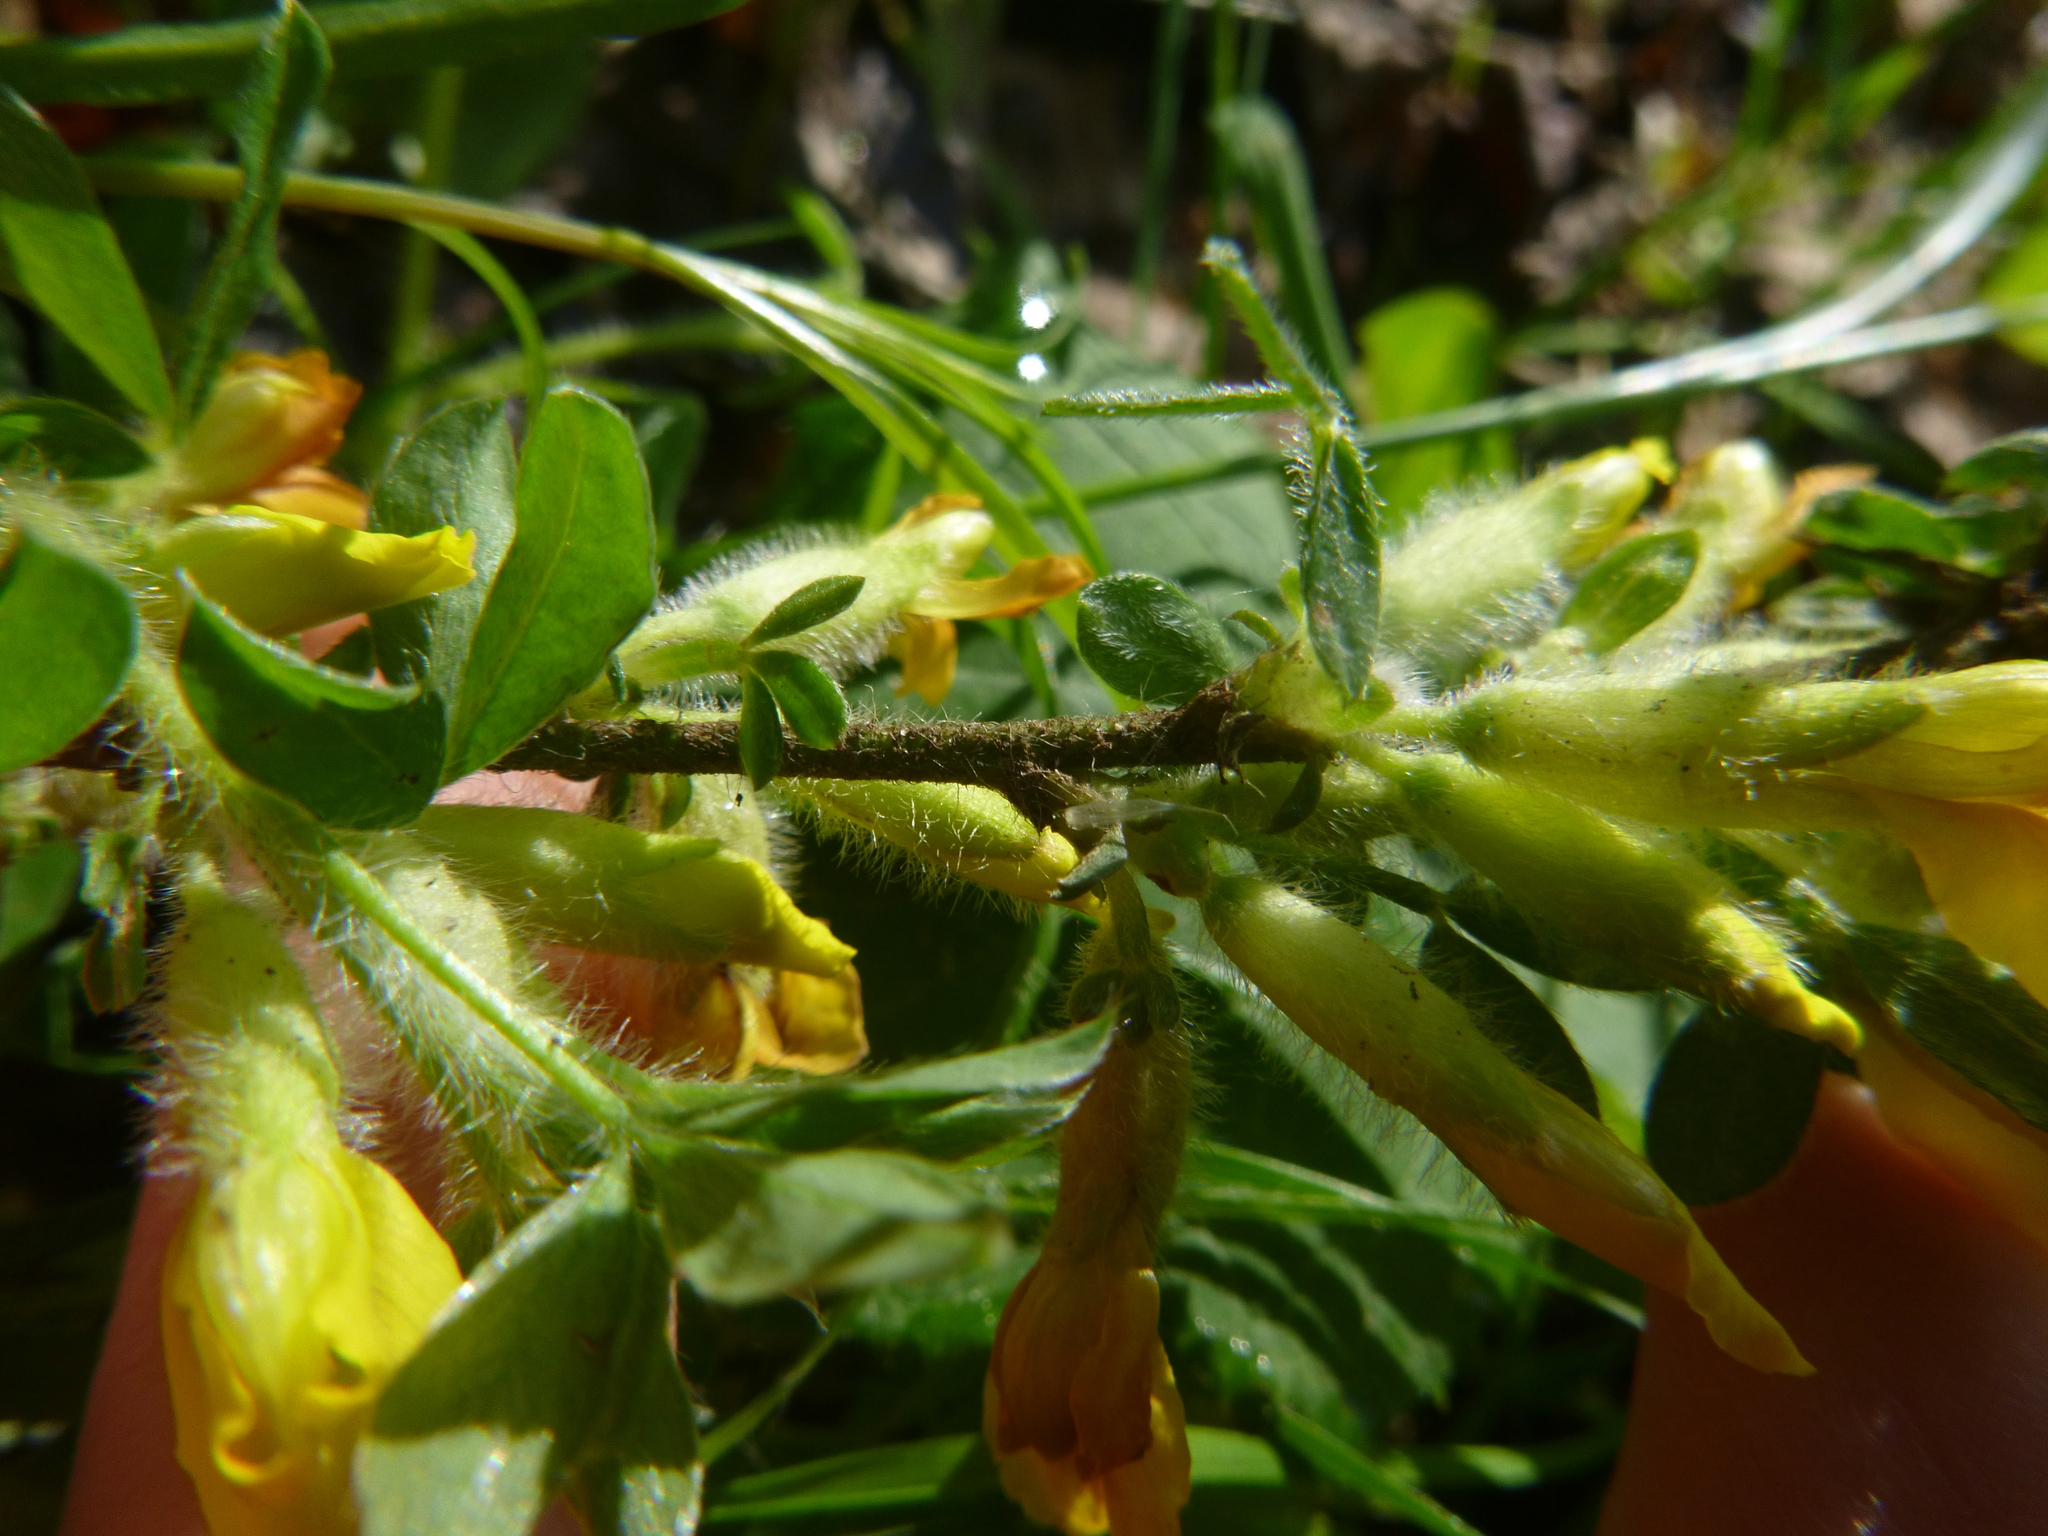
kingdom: Plantae
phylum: Tracheophyta
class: Magnoliopsida
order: Fabales
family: Fabaceae
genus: Chamaecytisus
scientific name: Chamaecytisus hirsutus
